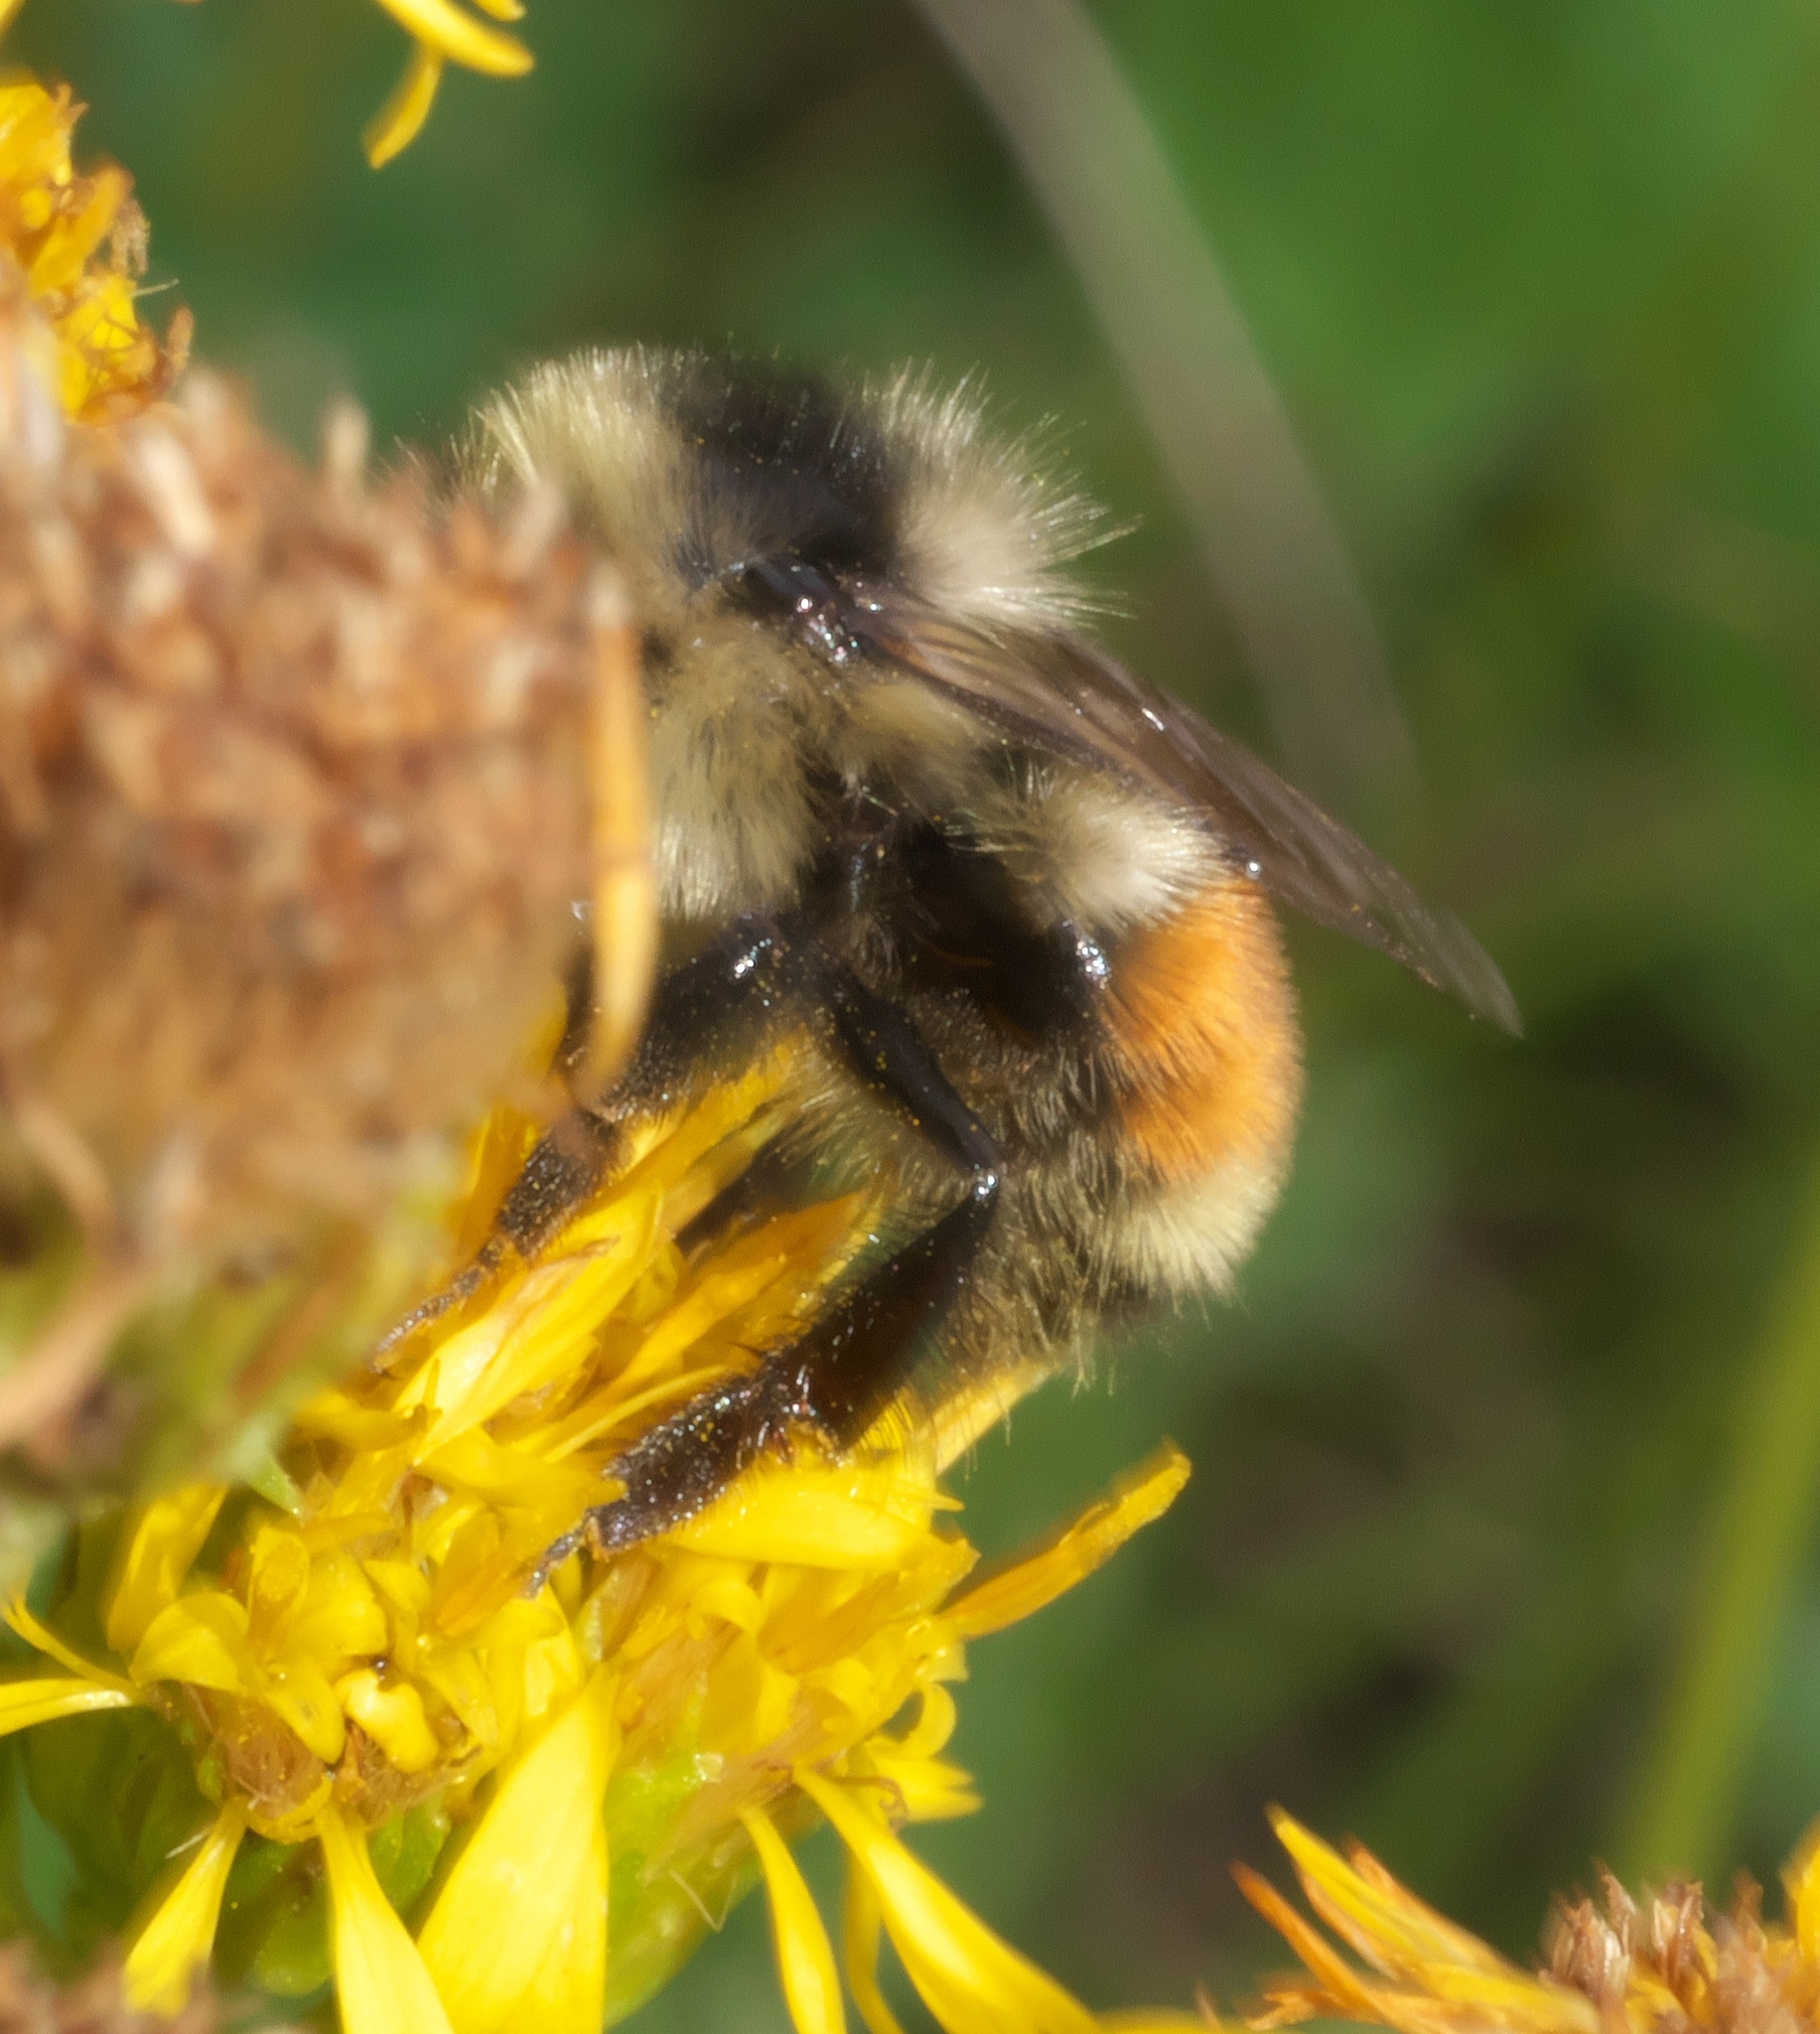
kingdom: Animalia
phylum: Arthropoda
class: Insecta
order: Hymenoptera
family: Apidae
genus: Bombus
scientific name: Bombus bifarius
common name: Two form bumble bee
